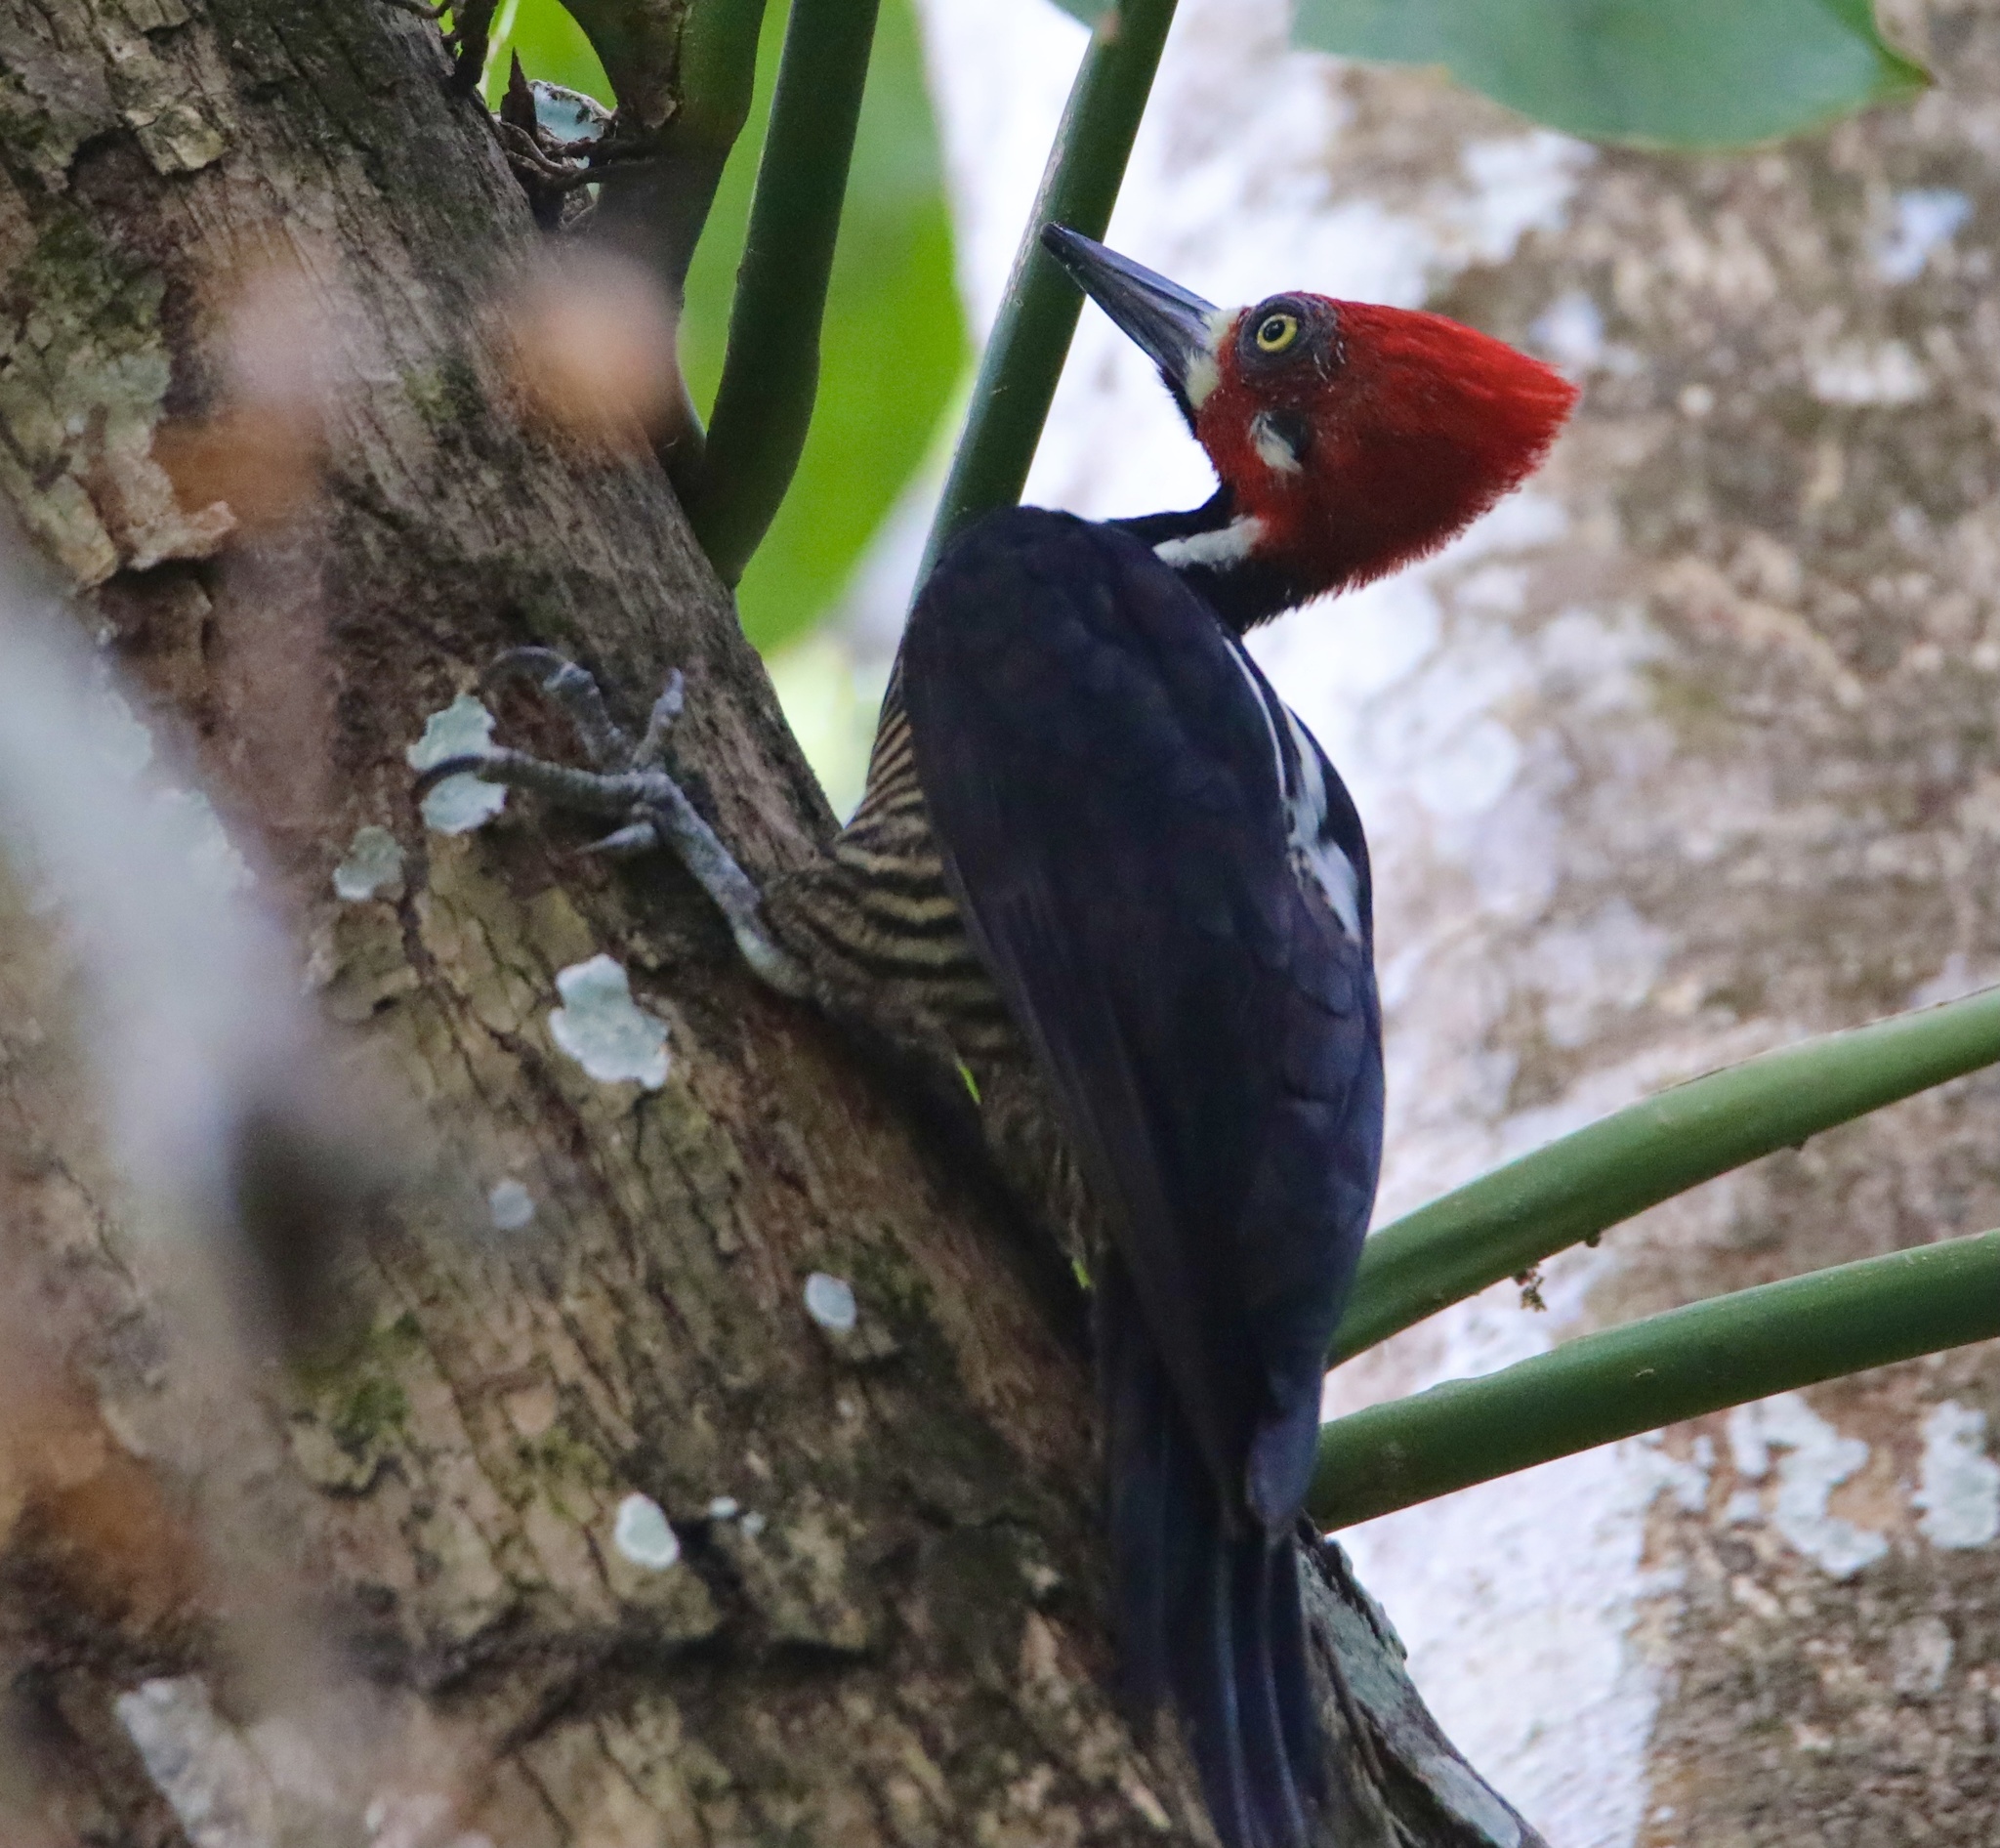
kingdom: Animalia
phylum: Chordata
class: Aves
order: Piciformes
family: Picidae
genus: Campephilus
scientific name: Campephilus melanoleucos
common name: Crimson-crested woodpecker
